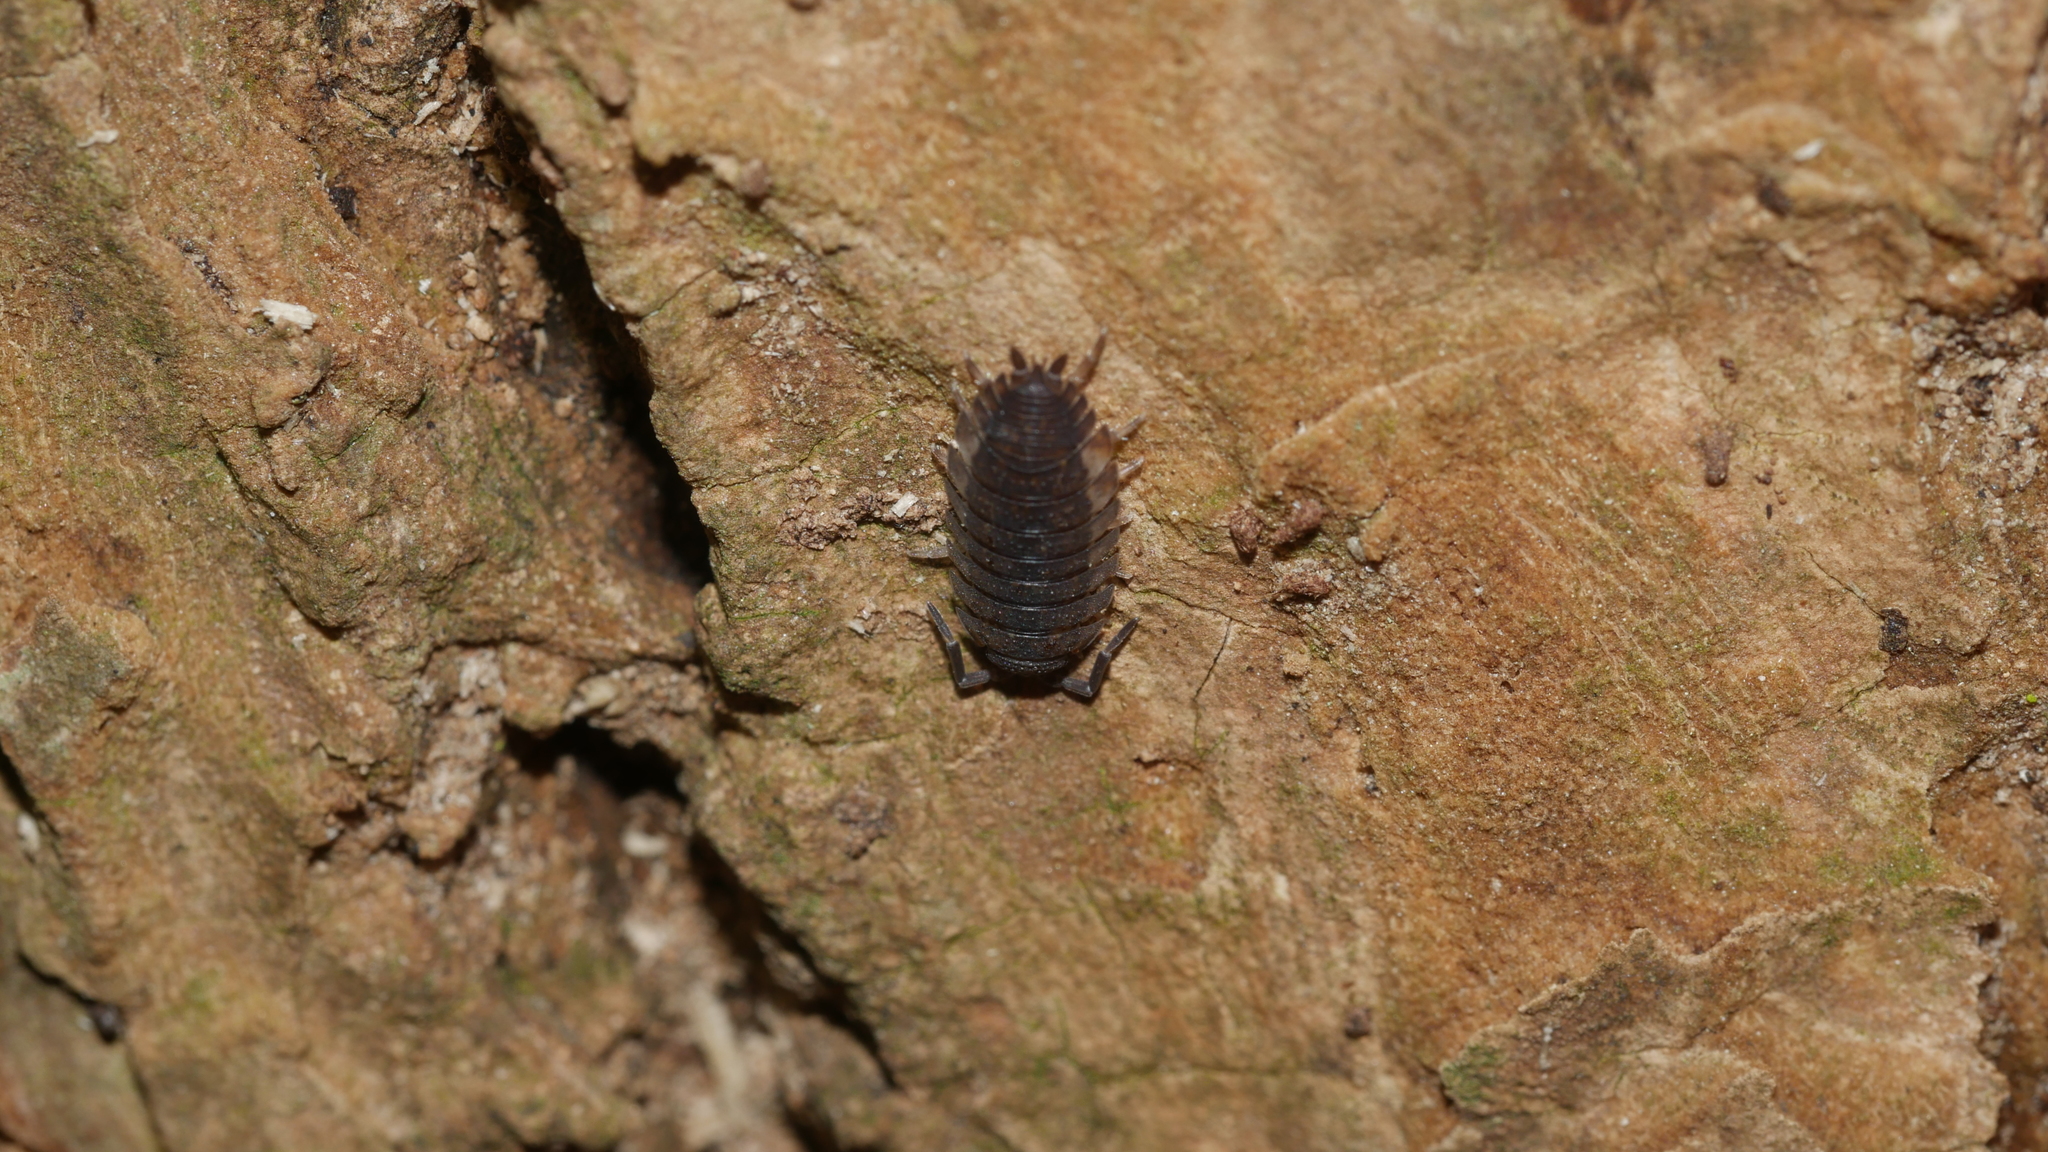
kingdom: Animalia
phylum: Arthropoda
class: Malacostraca
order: Isopoda
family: Porcellionidae
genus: Porcellio
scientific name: Porcellio scaber
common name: Common rough woodlouse
